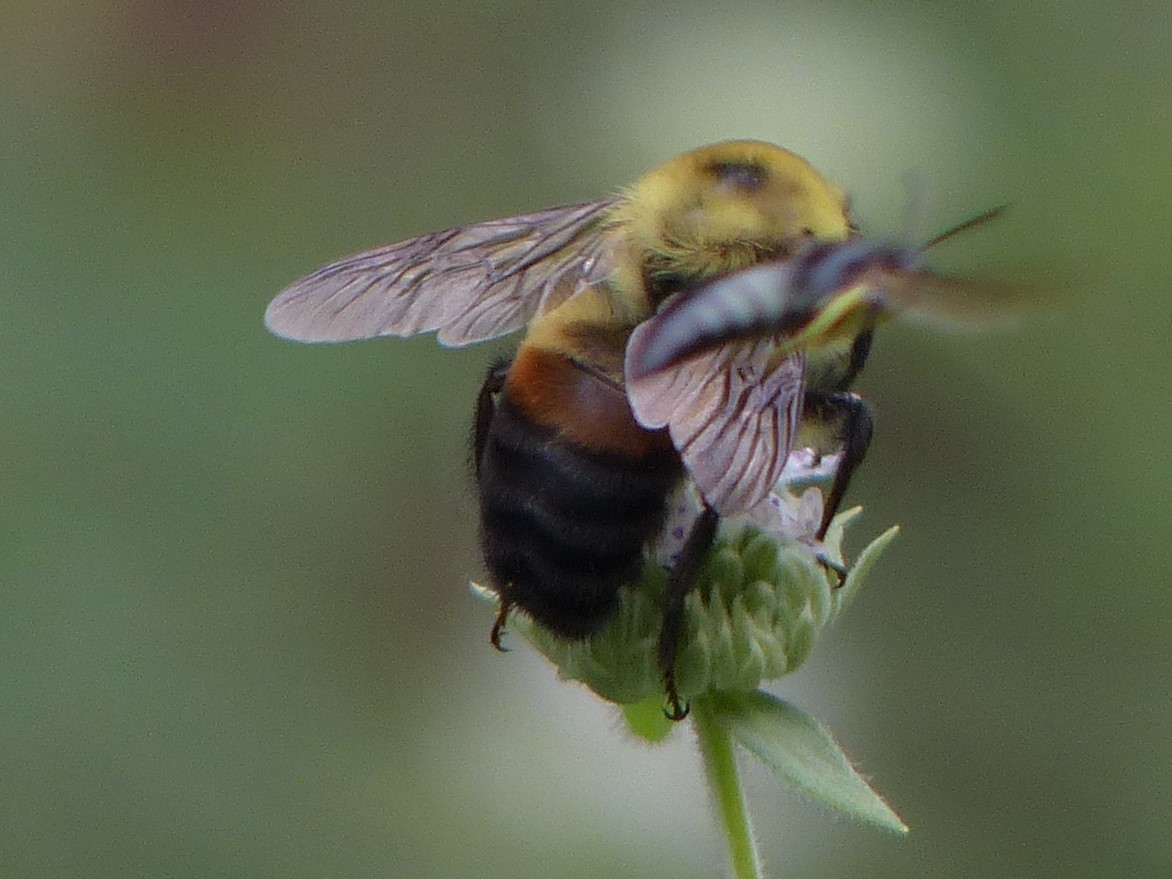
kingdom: Animalia
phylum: Arthropoda
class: Insecta
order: Hymenoptera
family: Apidae
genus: Bombus
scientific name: Bombus griseocollis
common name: Brown-belted bumble bee
